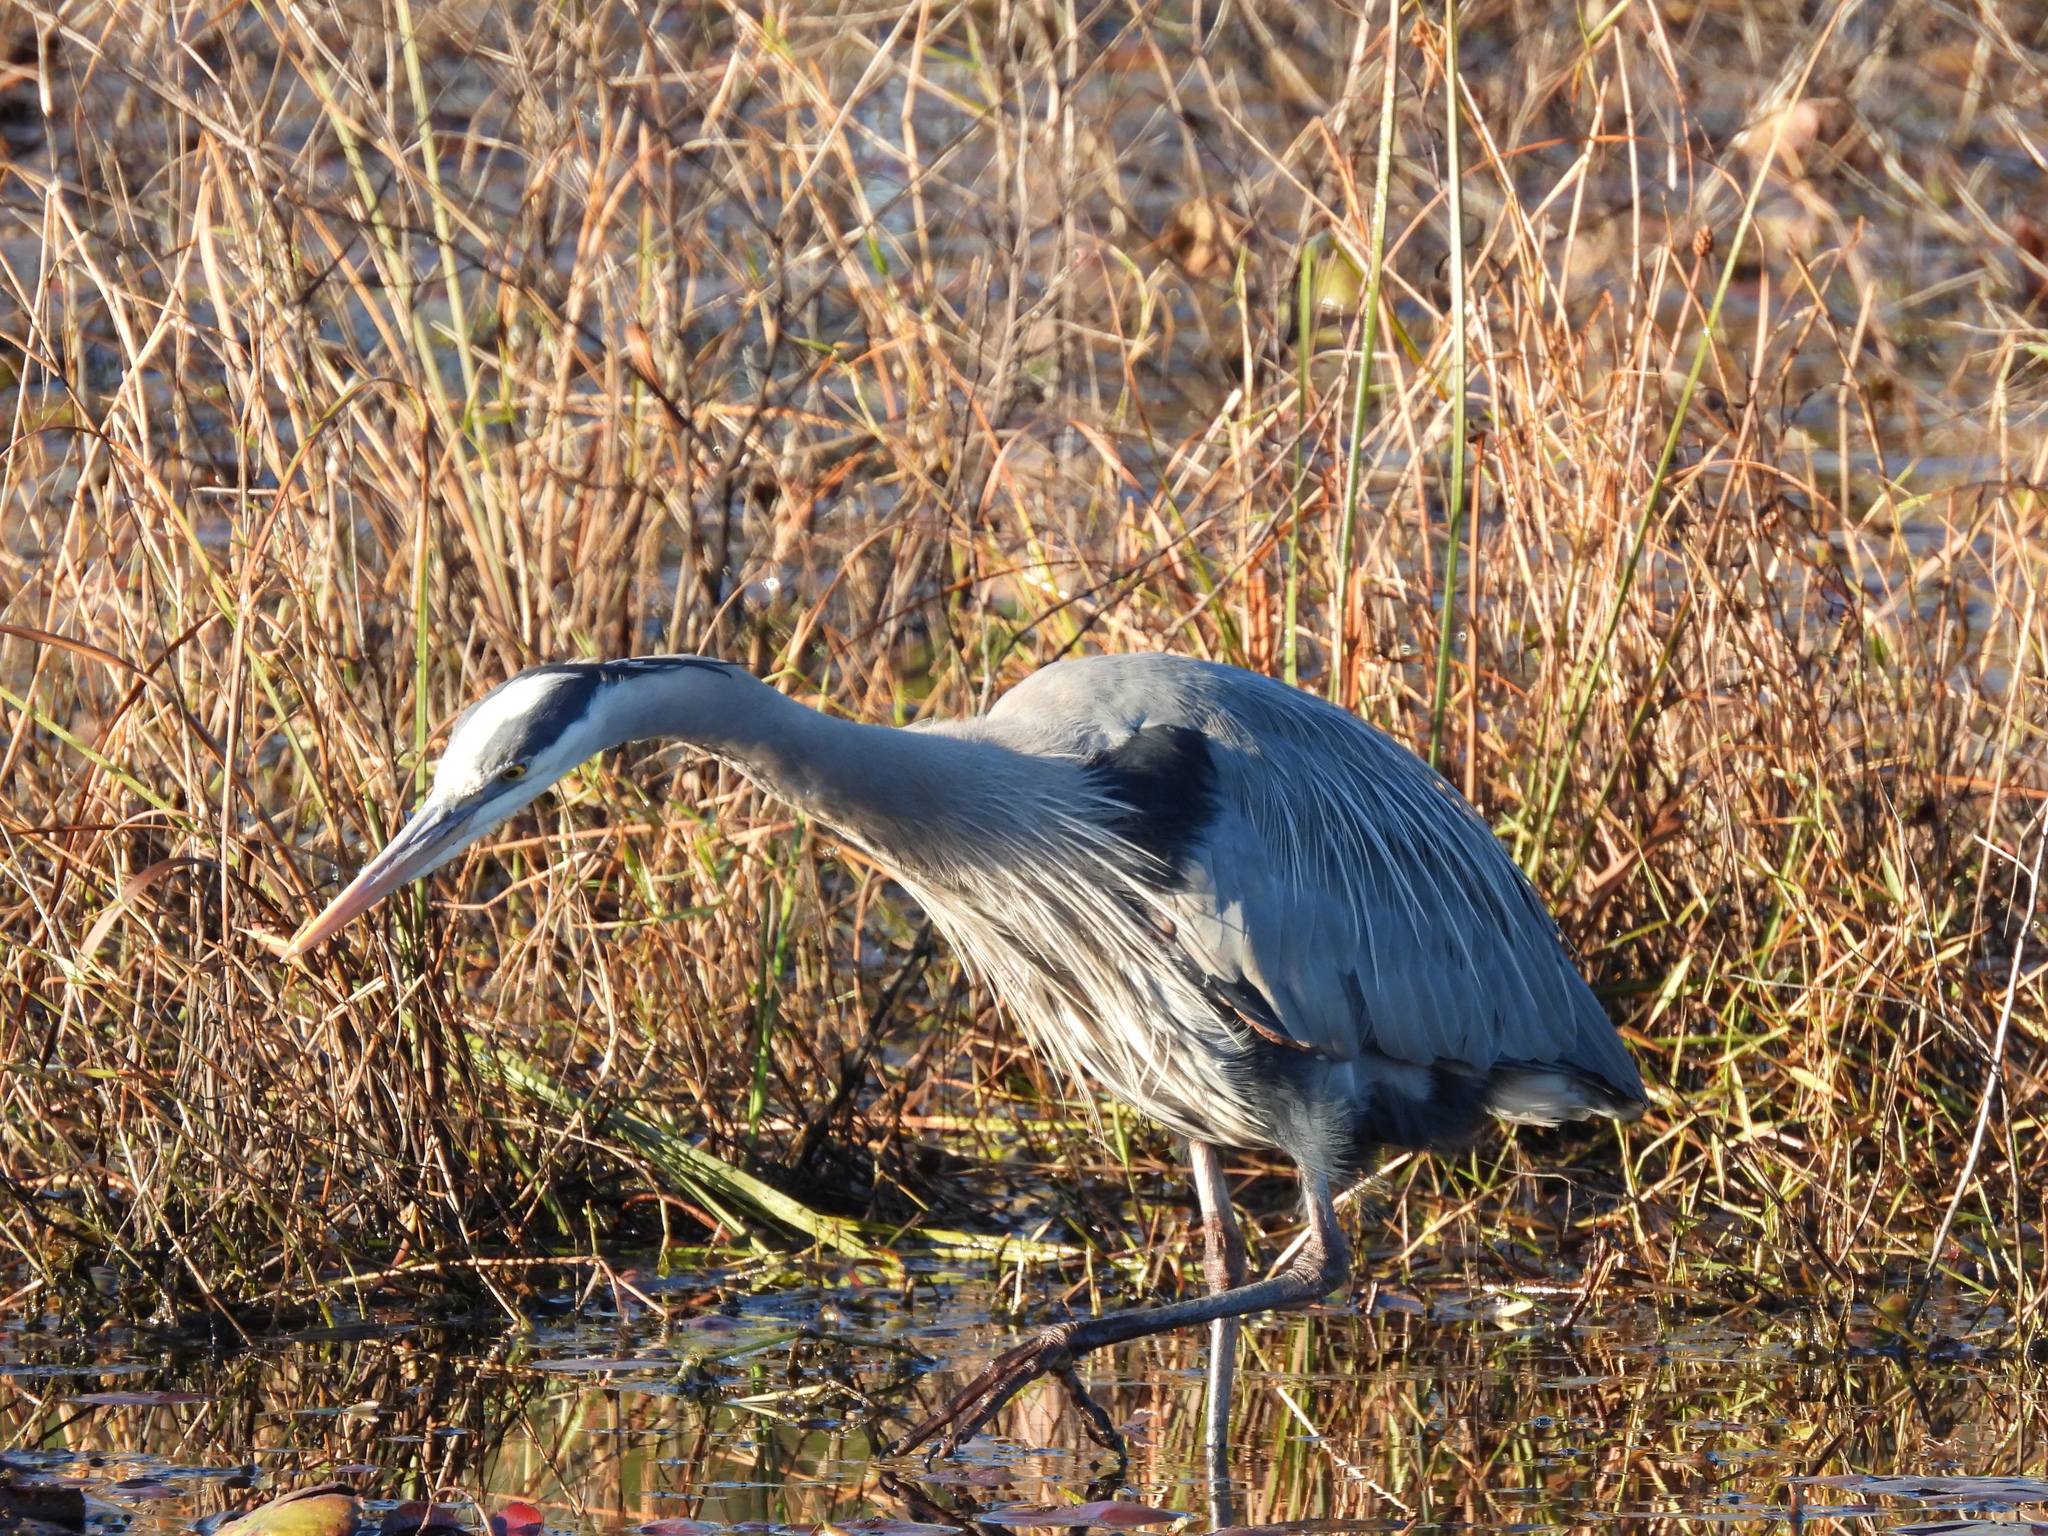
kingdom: Animalia
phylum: Chordata
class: Aves
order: Pelecaniformes
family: Ardeidae
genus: Ardea
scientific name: Ardea herodias
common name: Great blue heron
